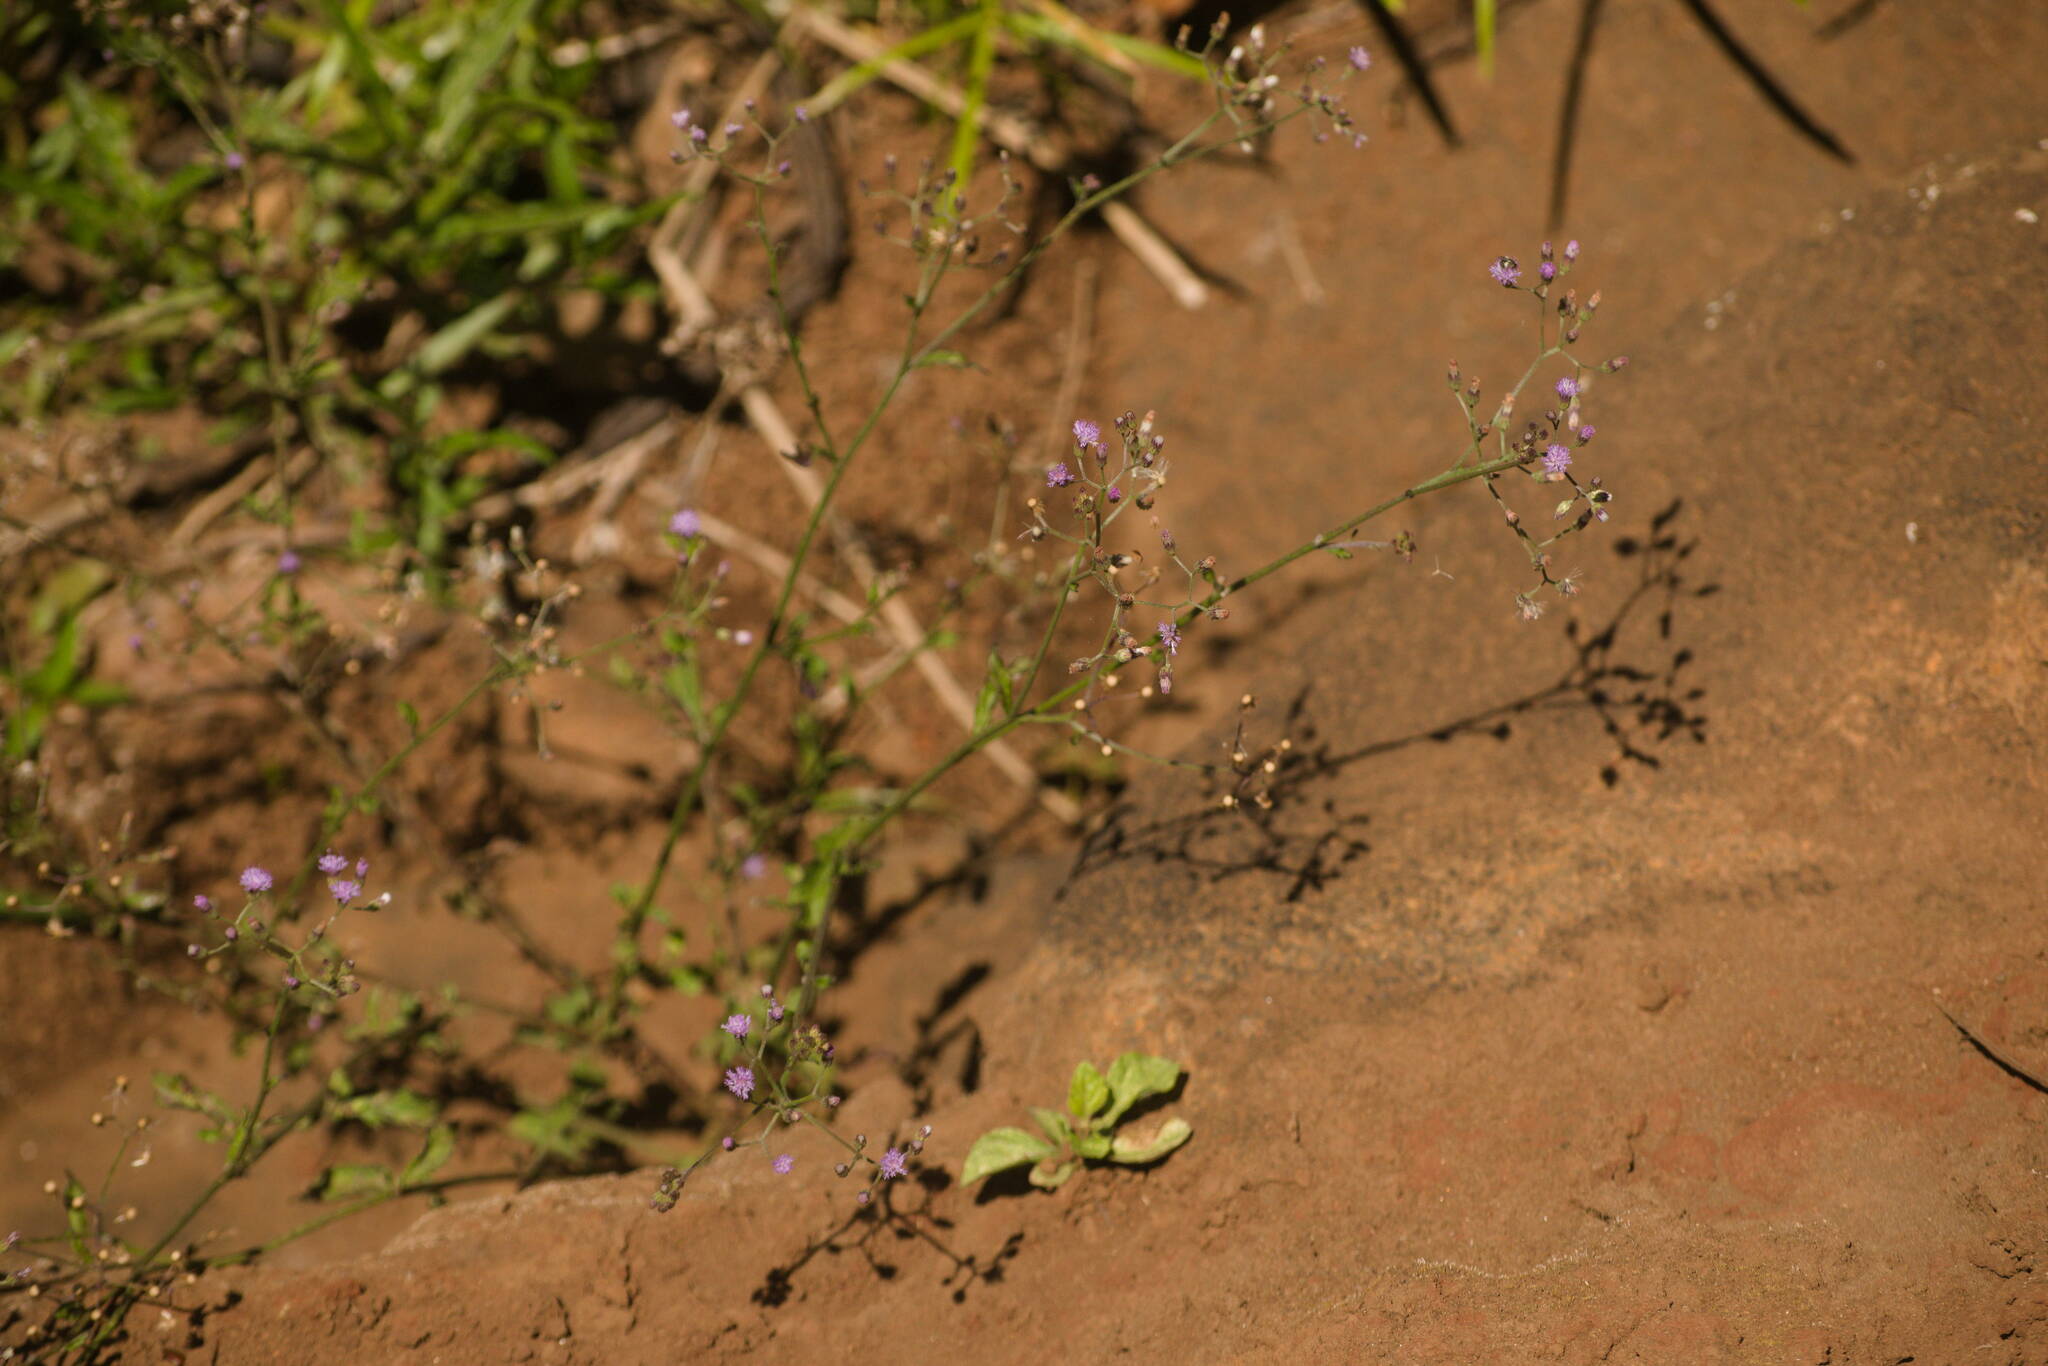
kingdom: Plantae
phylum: Tracheophyta
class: Magnoliopsida
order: Asterales
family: Asteraceae
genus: Cyanthillium
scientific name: Cyanthillium cinereum
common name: Little ironweed
